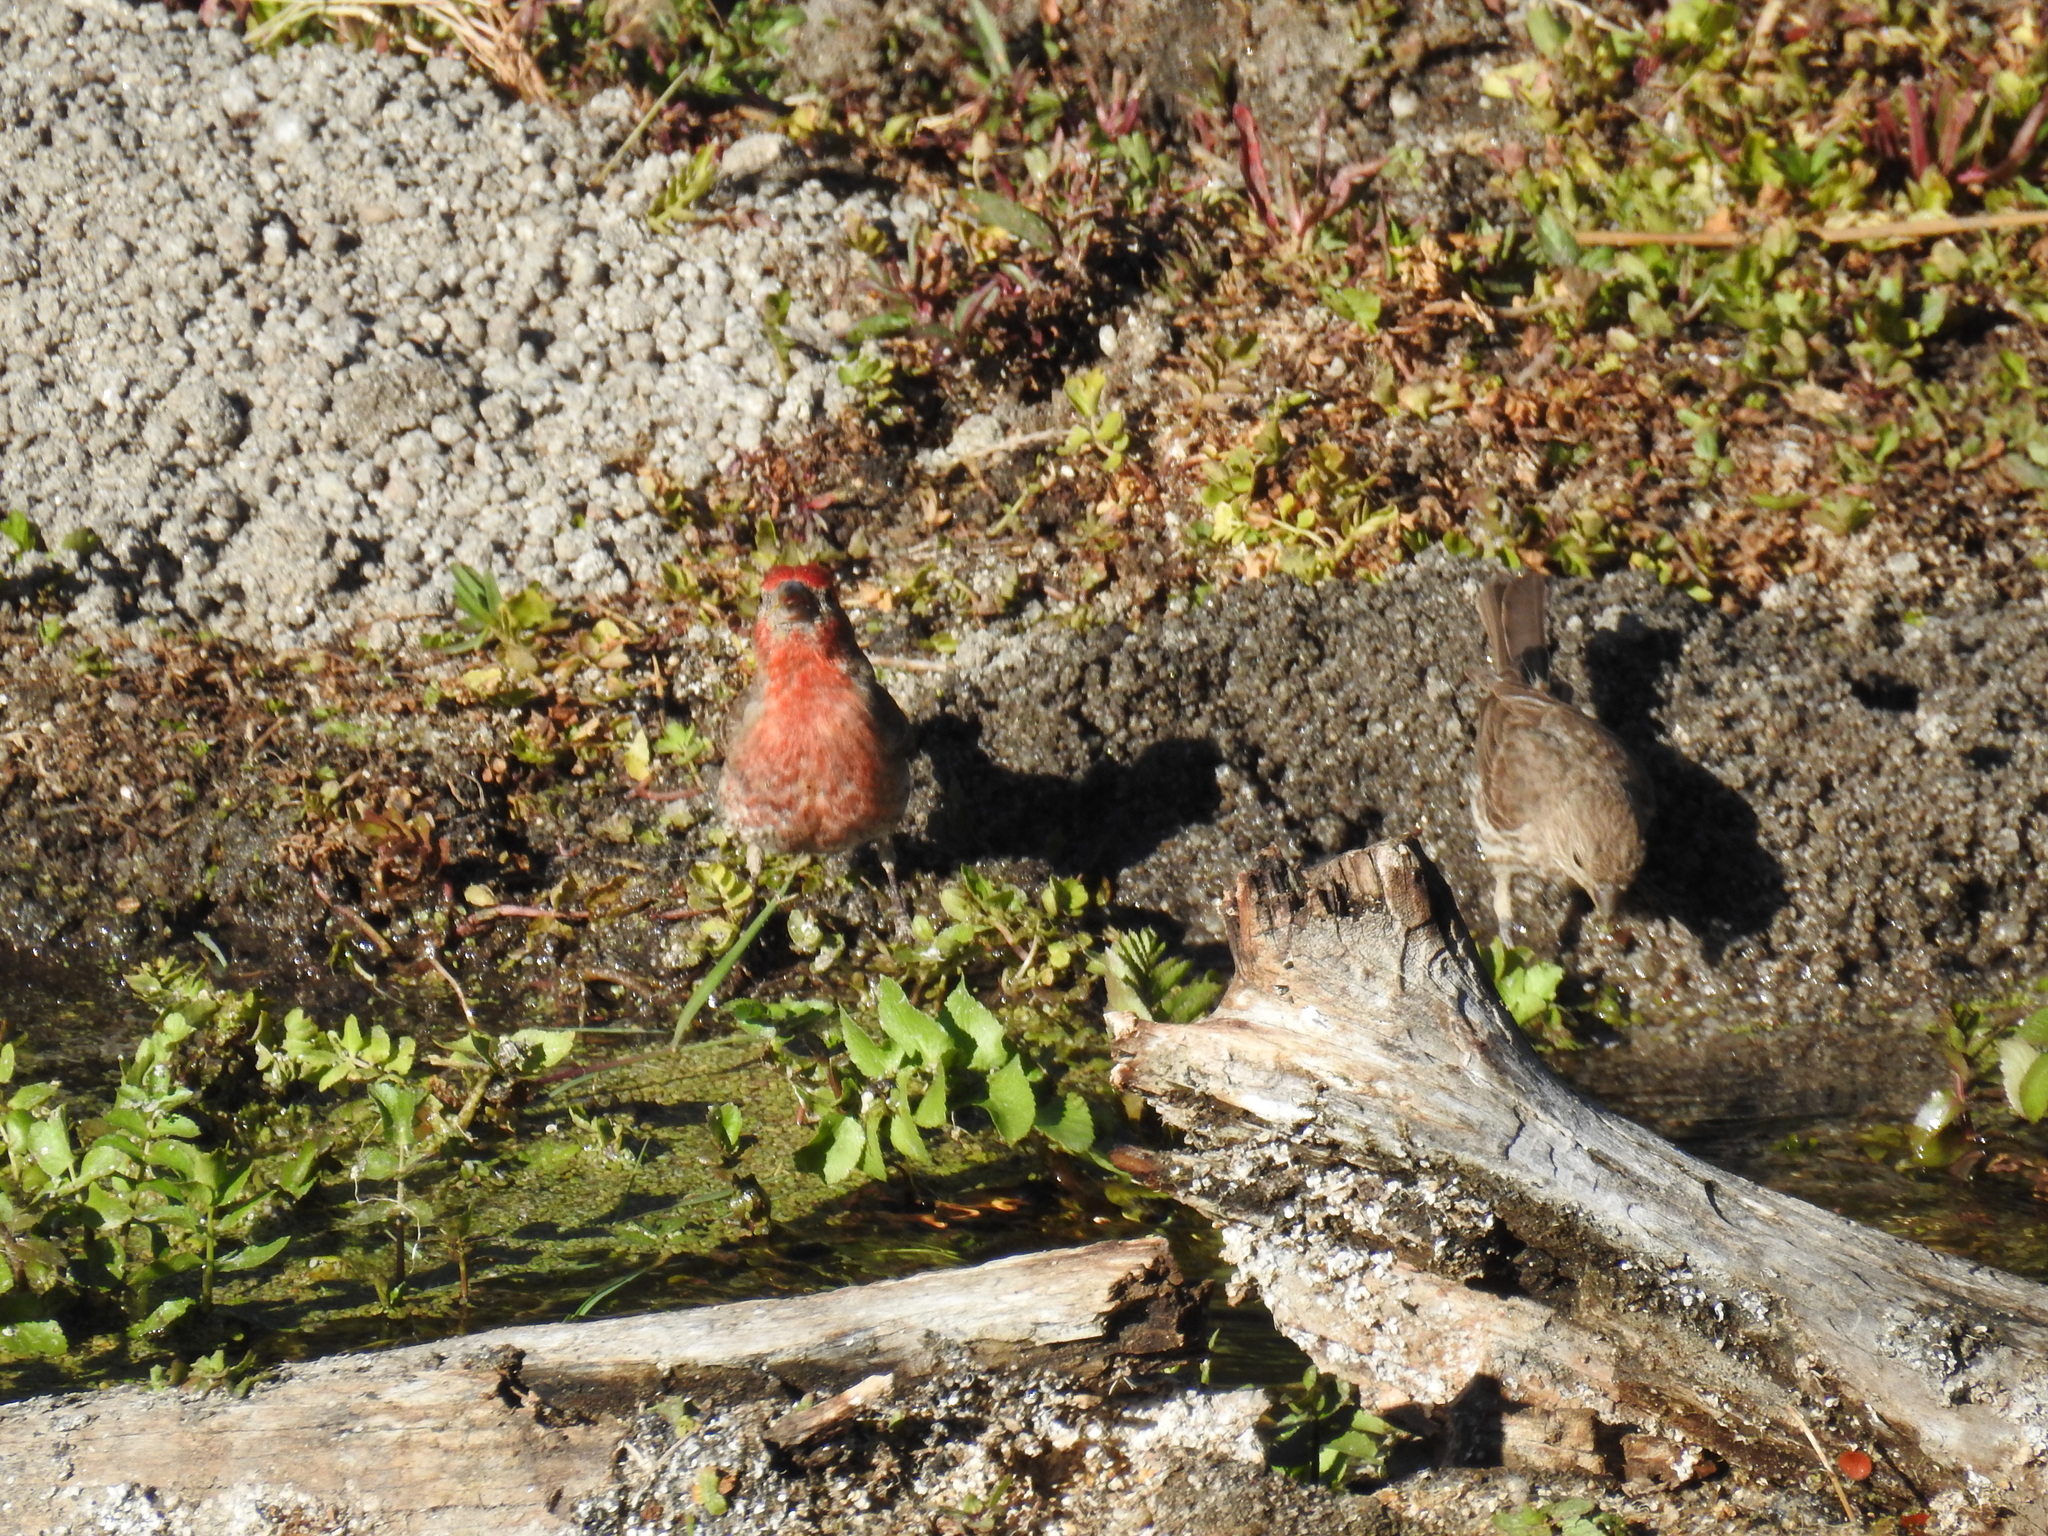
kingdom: Animalia
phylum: Chordata
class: Aves
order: Passeriformes
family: Fringillidae
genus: Haemorhous
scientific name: Haemorhous mexicanus
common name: House finch
